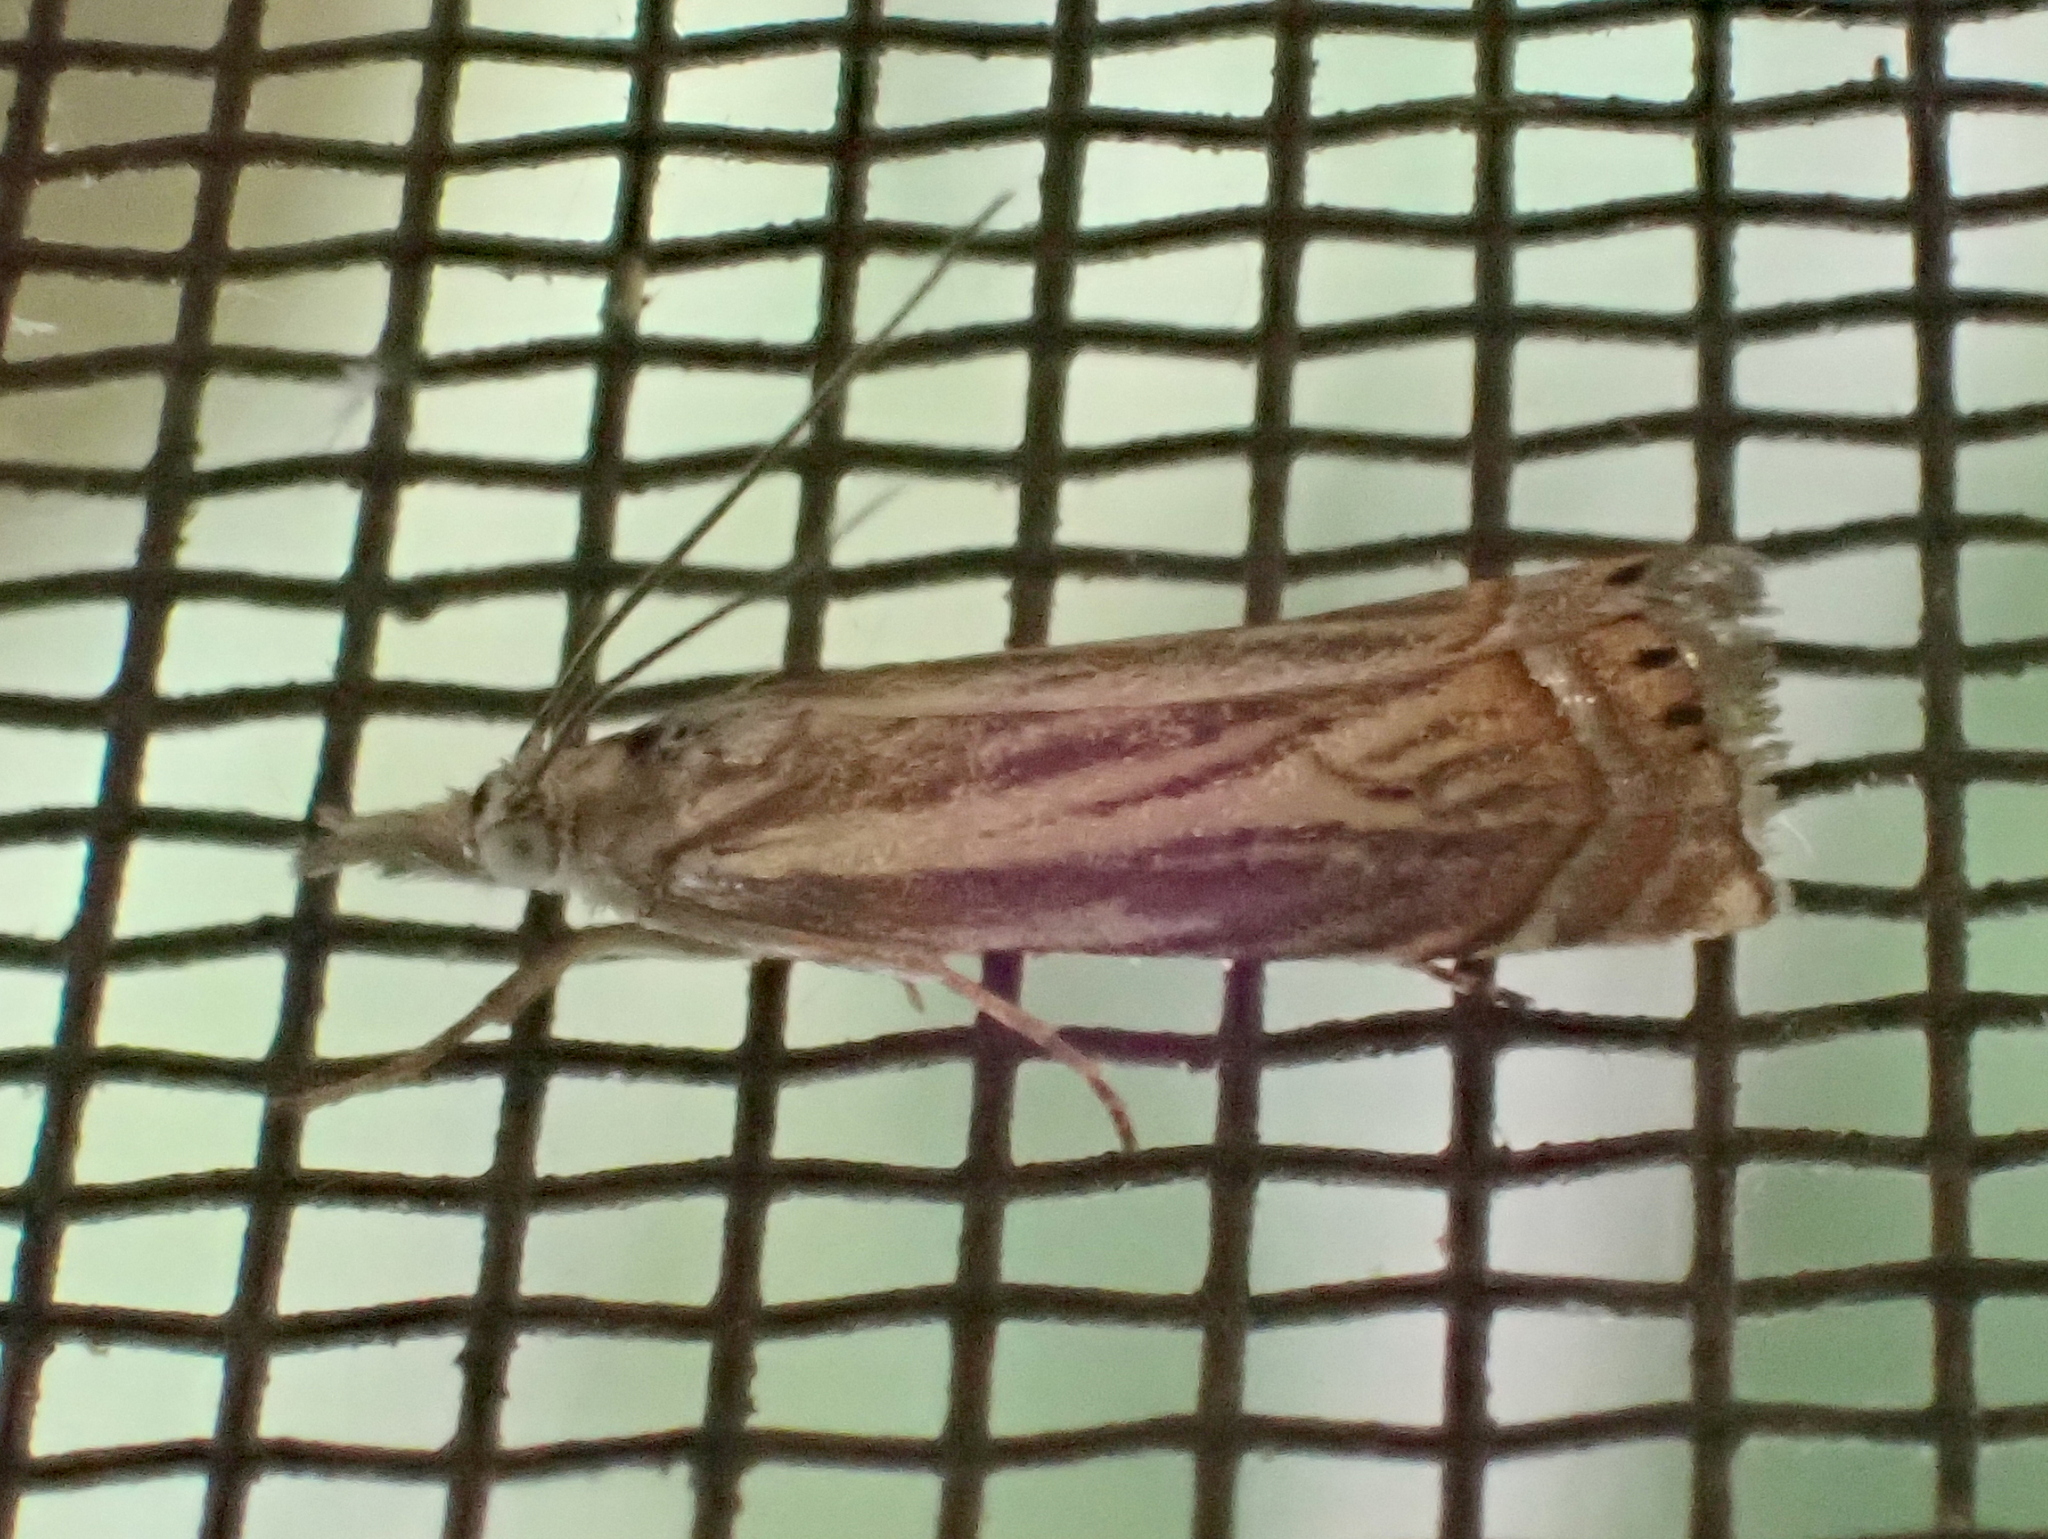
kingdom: Animalia
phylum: Arthropoda
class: Insecta
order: Lepidoptera
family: Crambidae
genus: Chrysoteuchia
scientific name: Chrysoteuchia topiarius
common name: Topiary grass-veneer
